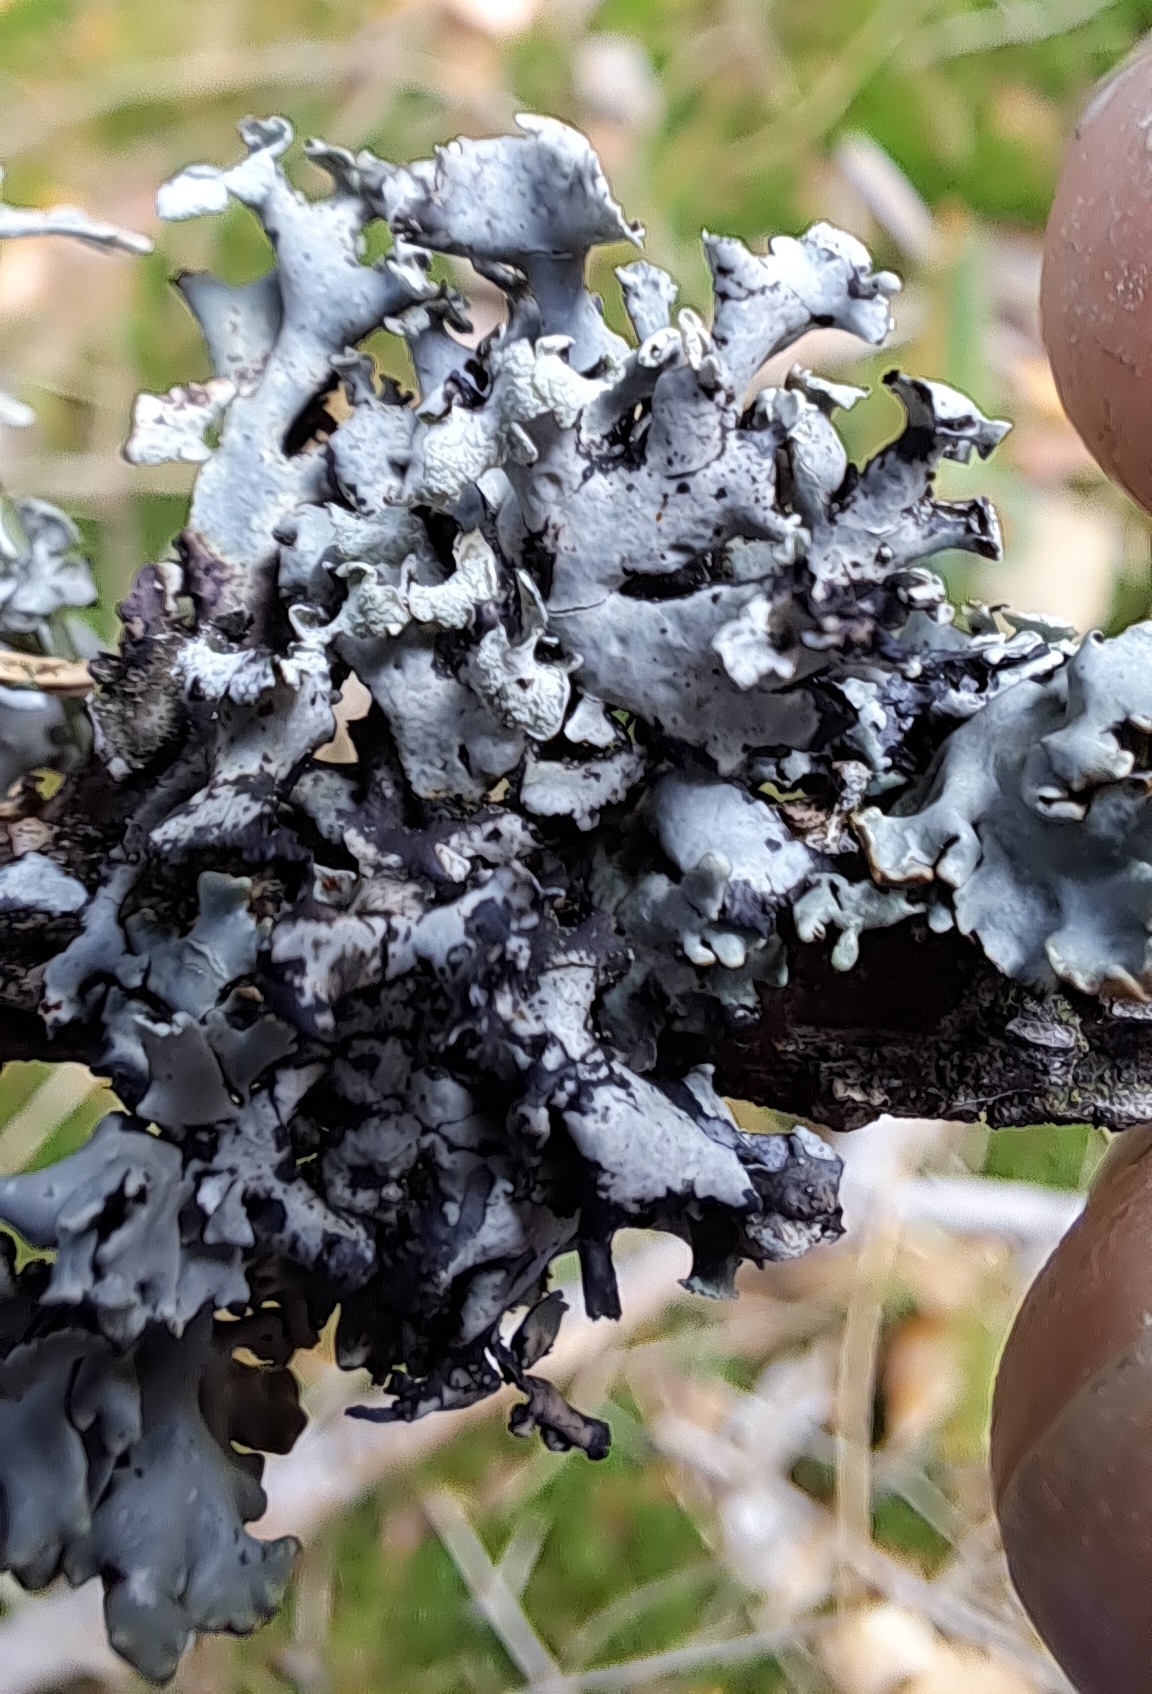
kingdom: Fungi
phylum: Ascomycota
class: Lecanoromycetes
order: Lecanorales
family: Parmeliaceae
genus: Hypogymnia
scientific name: Hypogymnia physodes
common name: Dark crottle
